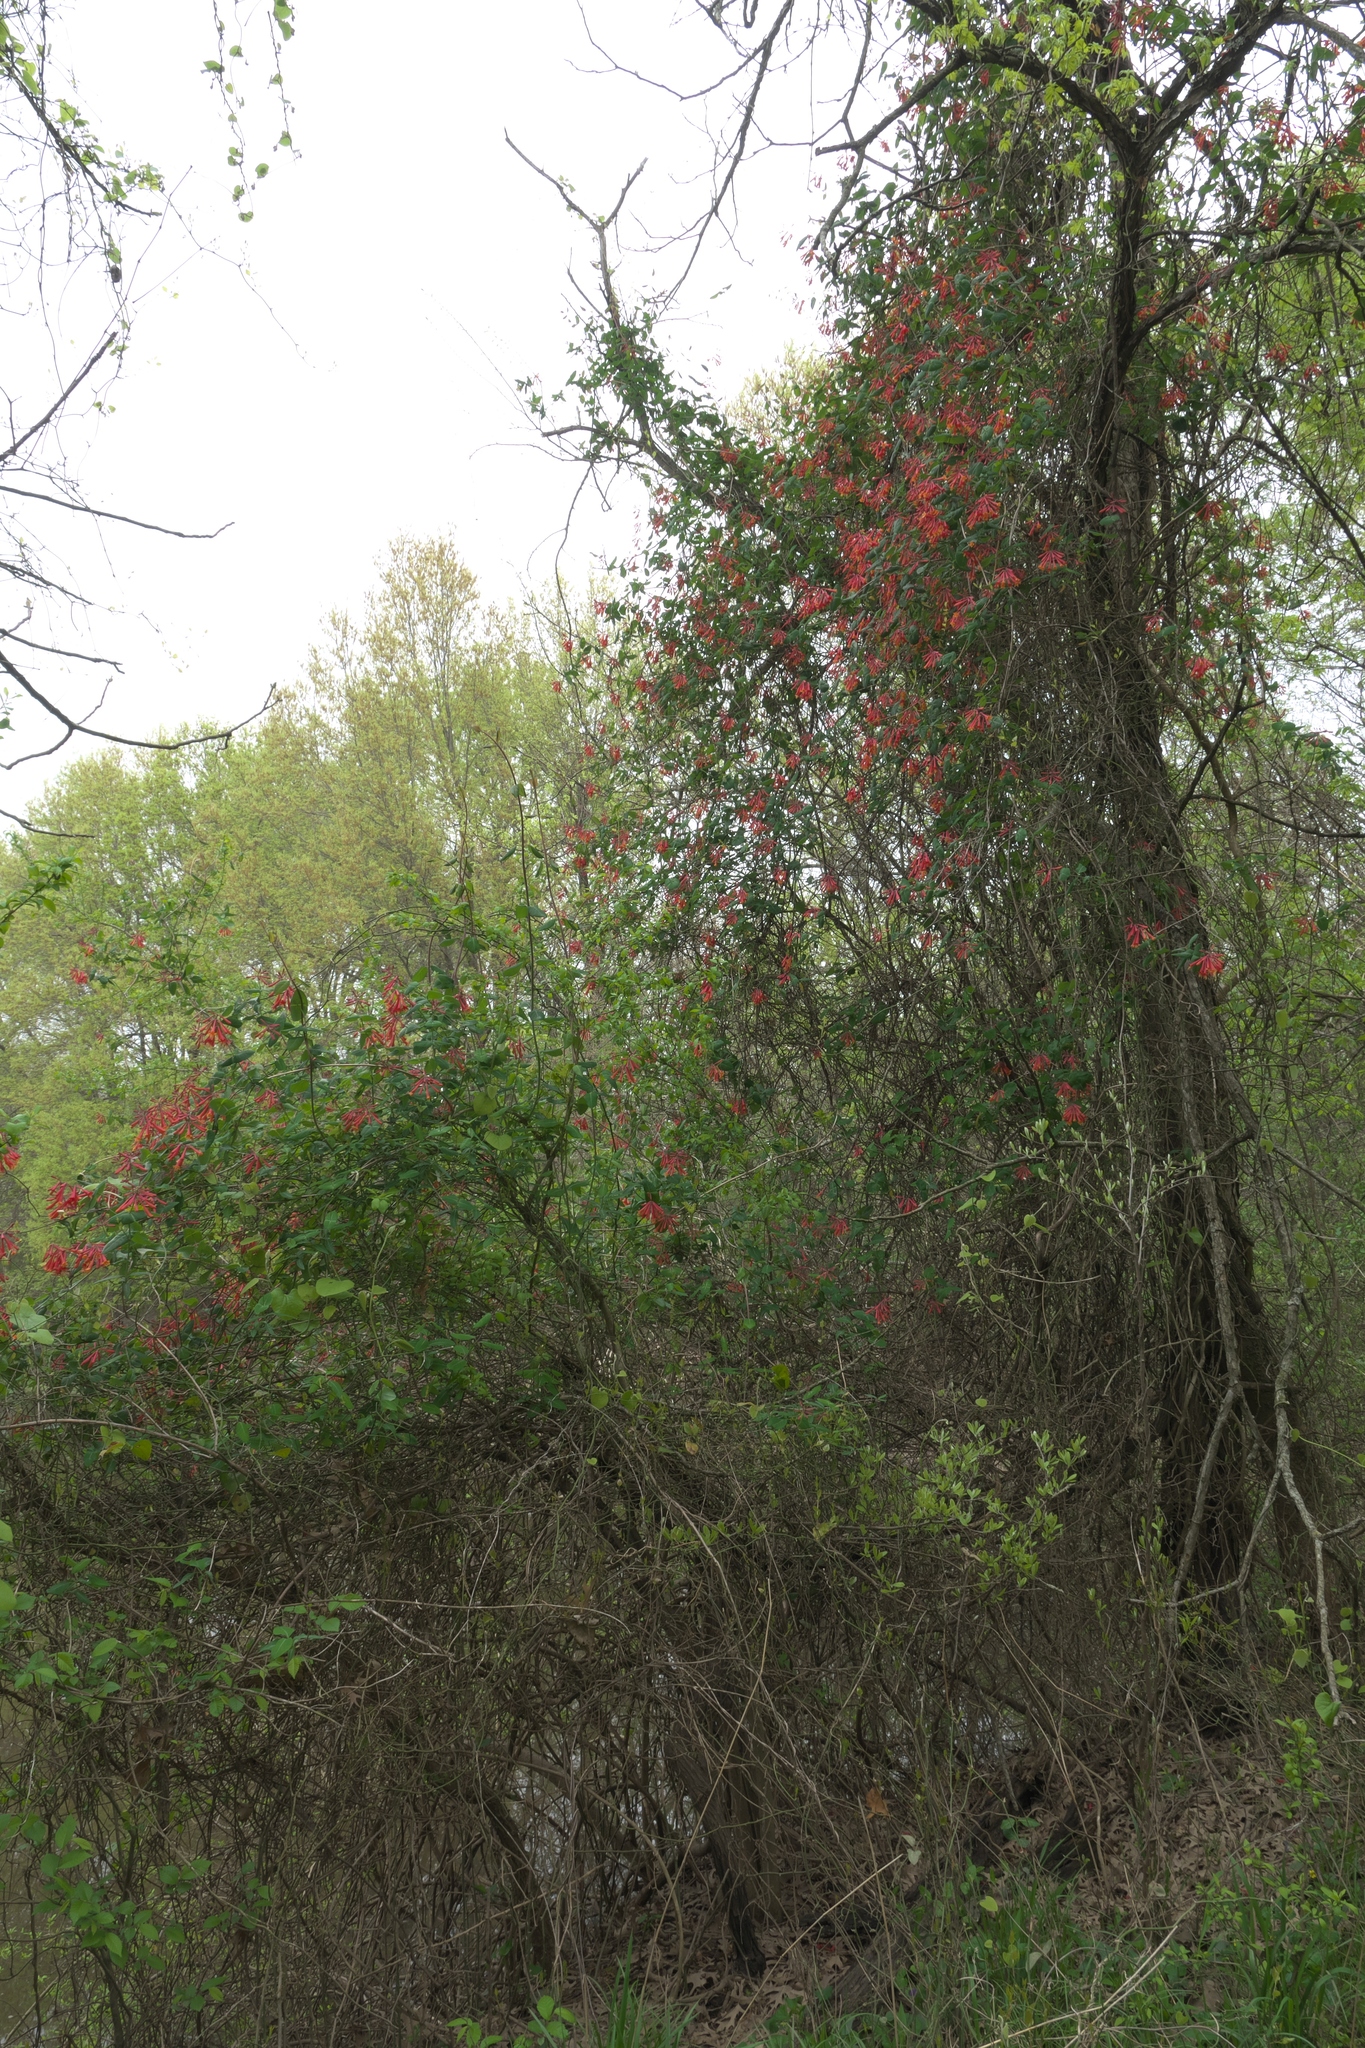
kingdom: Plantae
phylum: Tracheophyta
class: Magnoliopsida
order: Dipsacales
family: Caprifoliaceae
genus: Lonicera
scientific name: Lonicera sempervirens
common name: Coral honeysuckle
